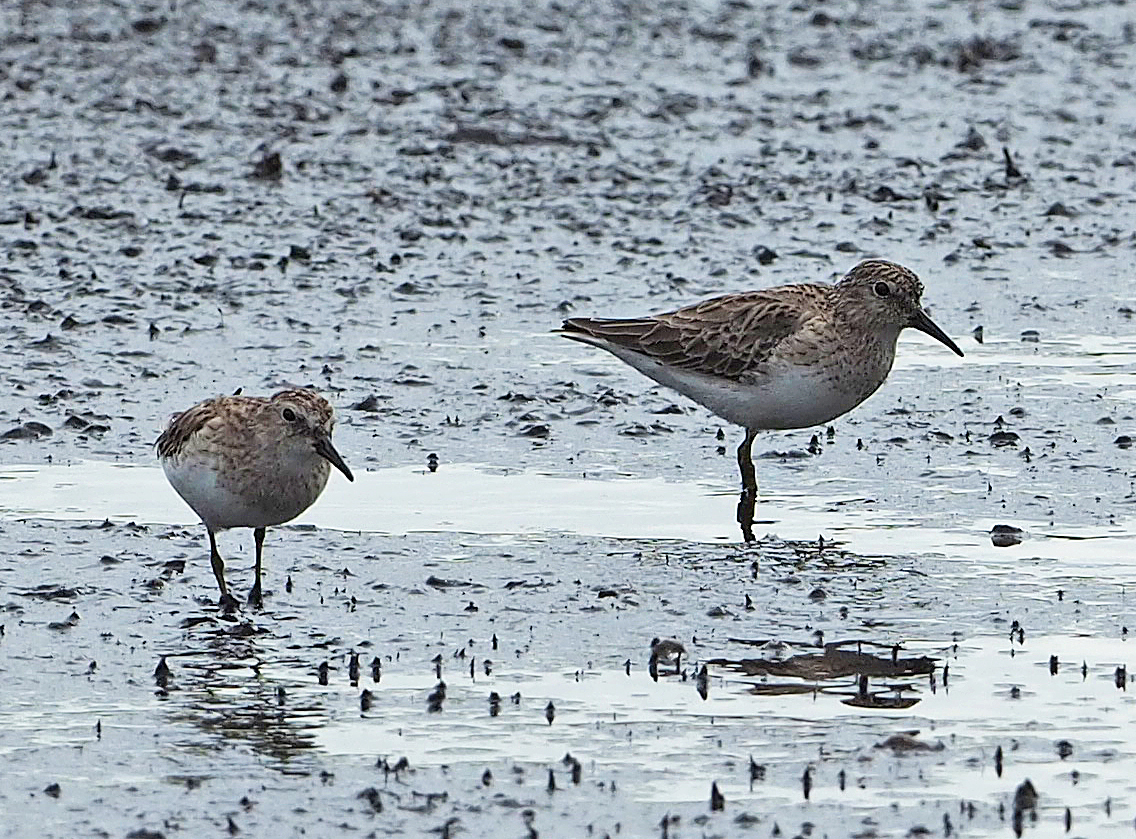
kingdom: Animalia
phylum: Chordata
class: Aves
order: Charadriiformes
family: Scolopacidae
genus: Calidris
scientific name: Calidris minutilla
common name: Least sandpiper
